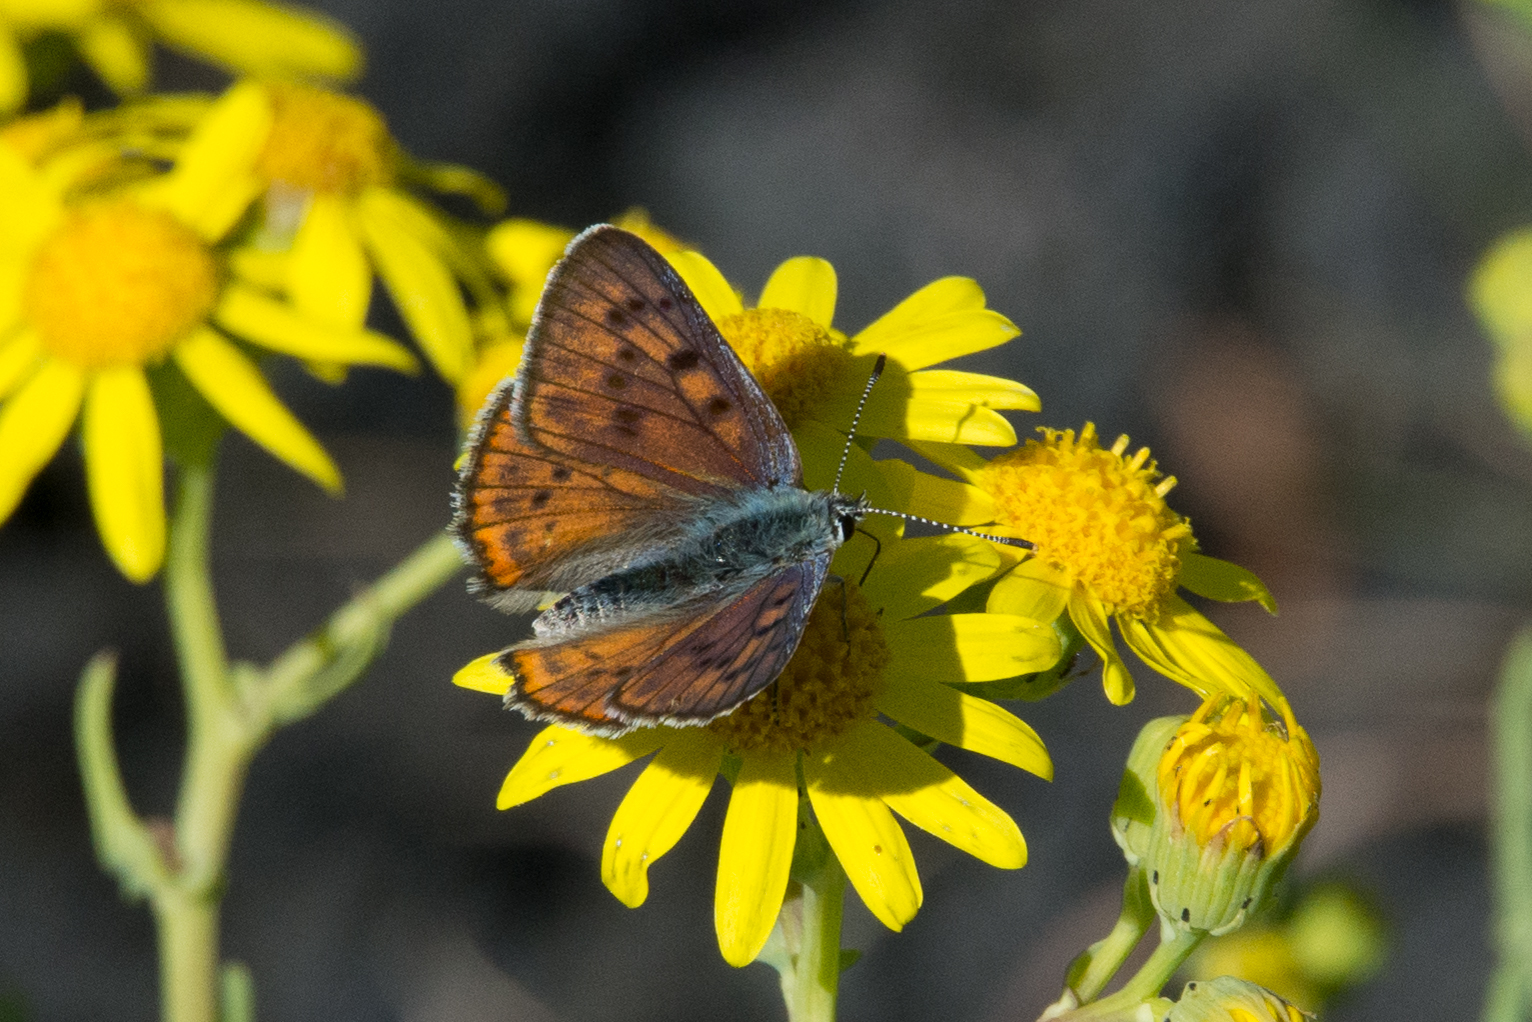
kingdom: Animalia
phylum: Arthropoda
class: Insecta
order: Lepidoptera
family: Lycaenidae
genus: Lycaena
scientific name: Lycaena alciphron
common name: Purple-shot copper
